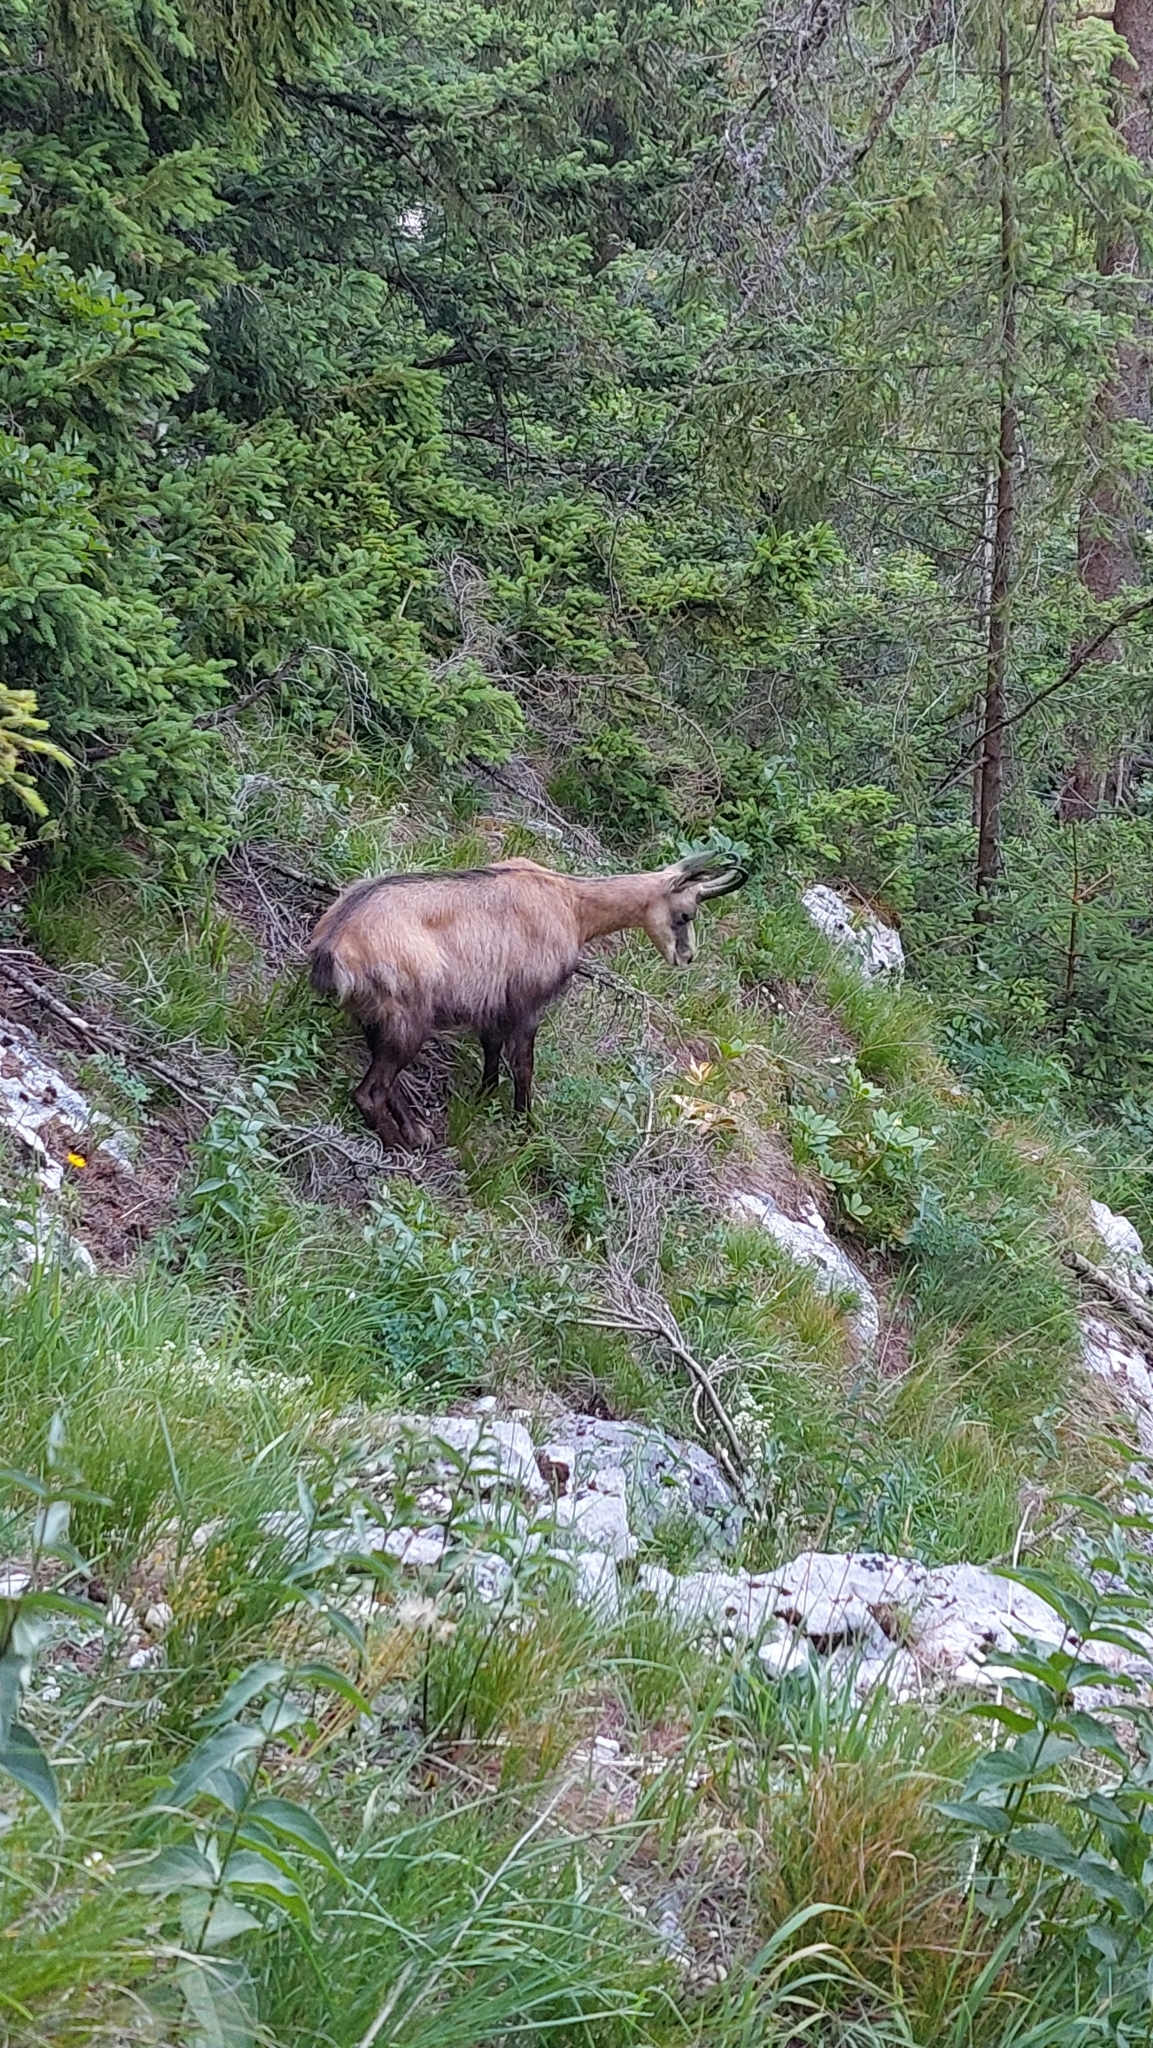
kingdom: Animalia
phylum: Chordata
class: Mammalia
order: Artiodactyla
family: Bovidae
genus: Rupicapra
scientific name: Rupicapra rupicapra
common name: Chamois
